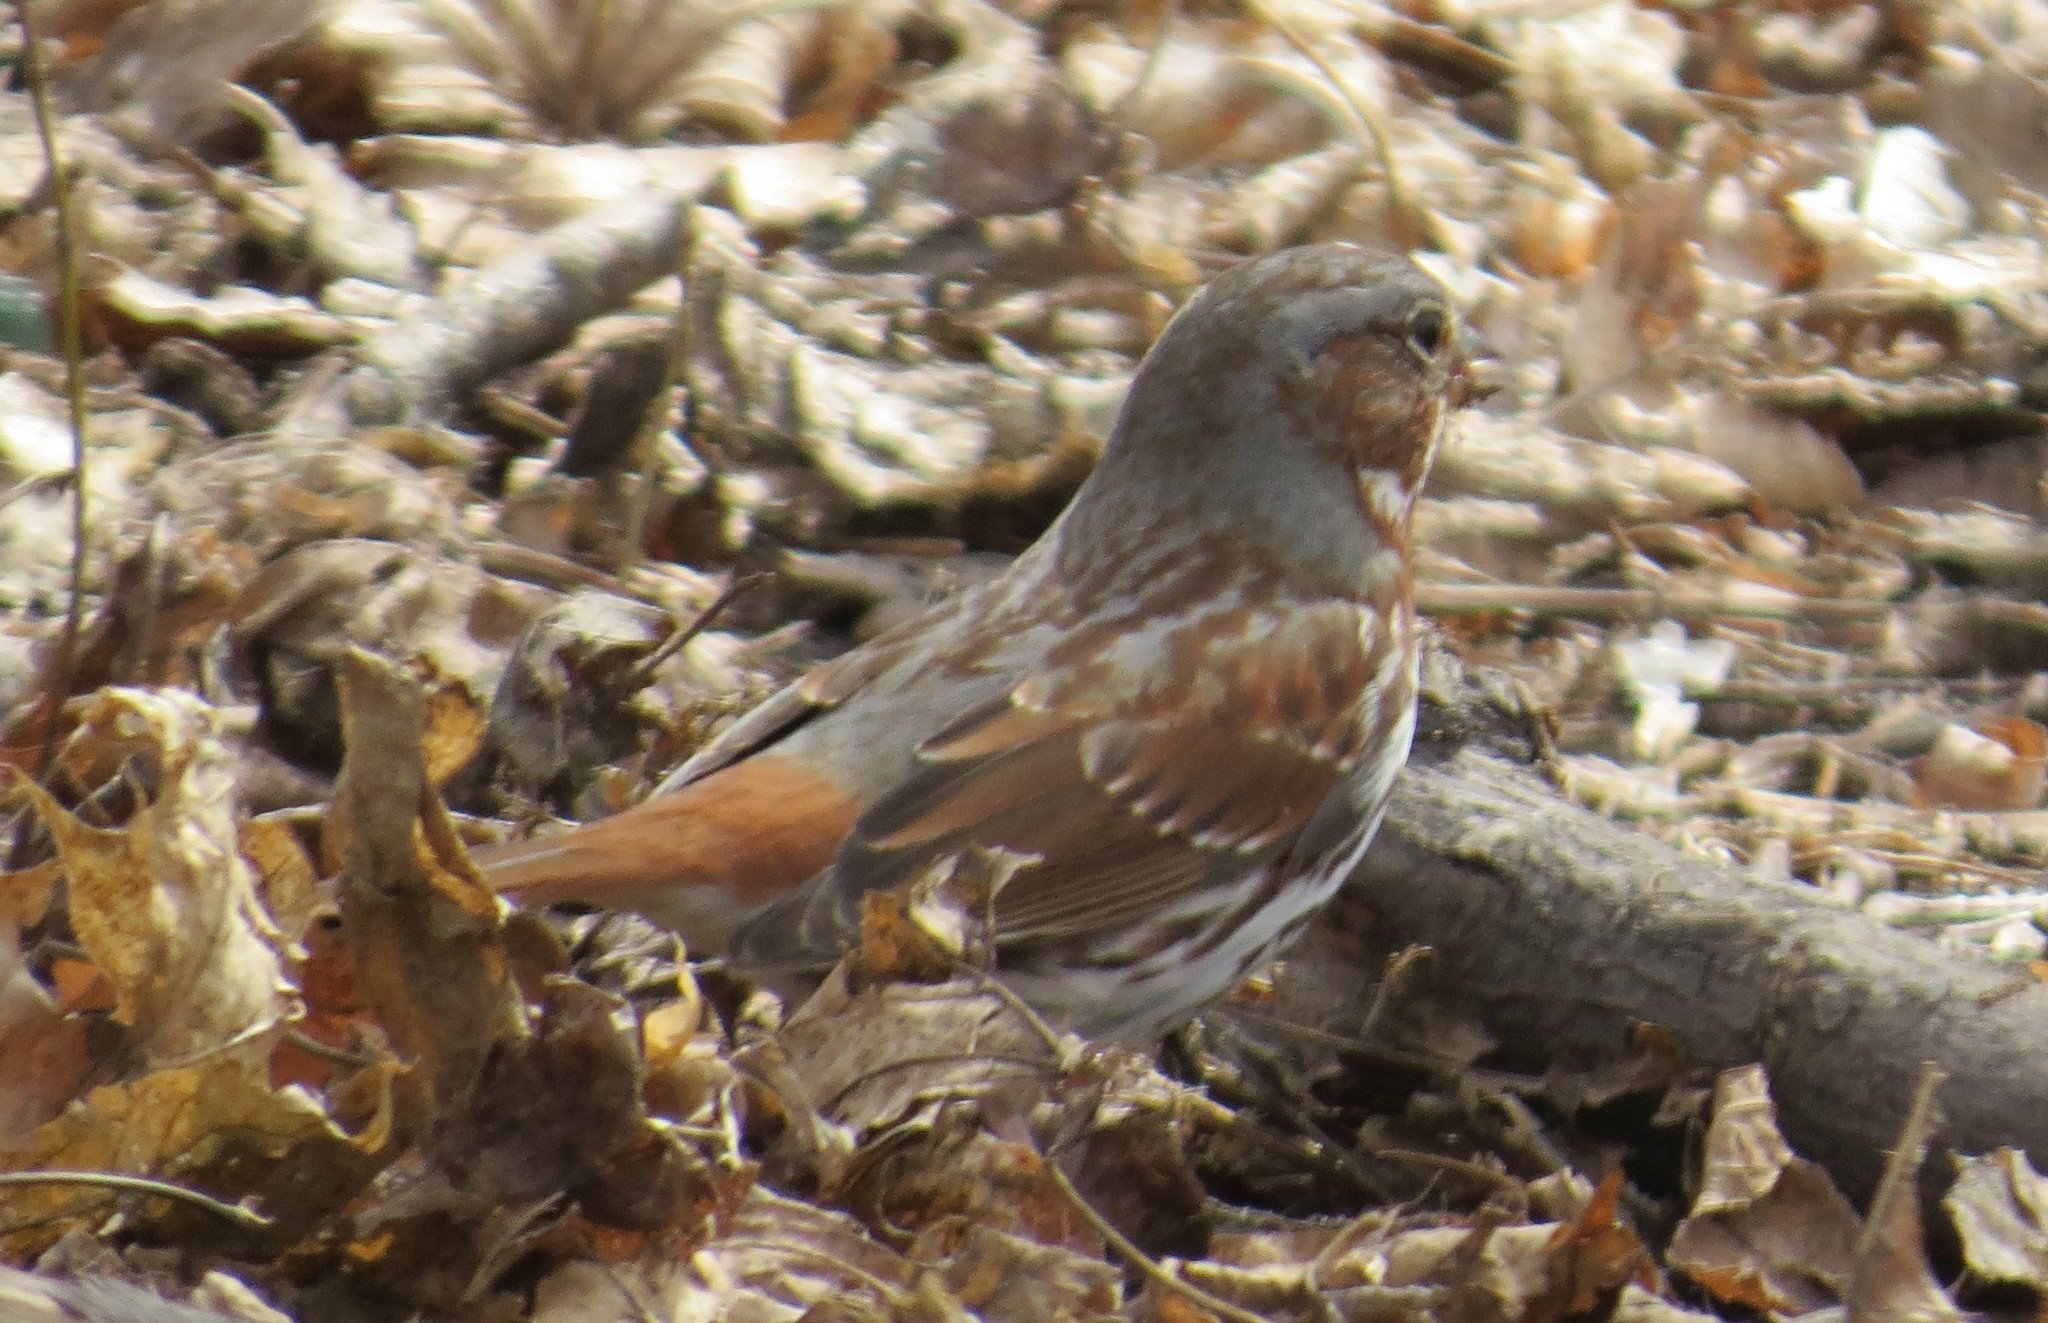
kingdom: Animalia
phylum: Chordata
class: Aves
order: Passeriformes
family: Passerellidae
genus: Passerella
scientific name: Passerella iliaca
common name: Fox sparrow
